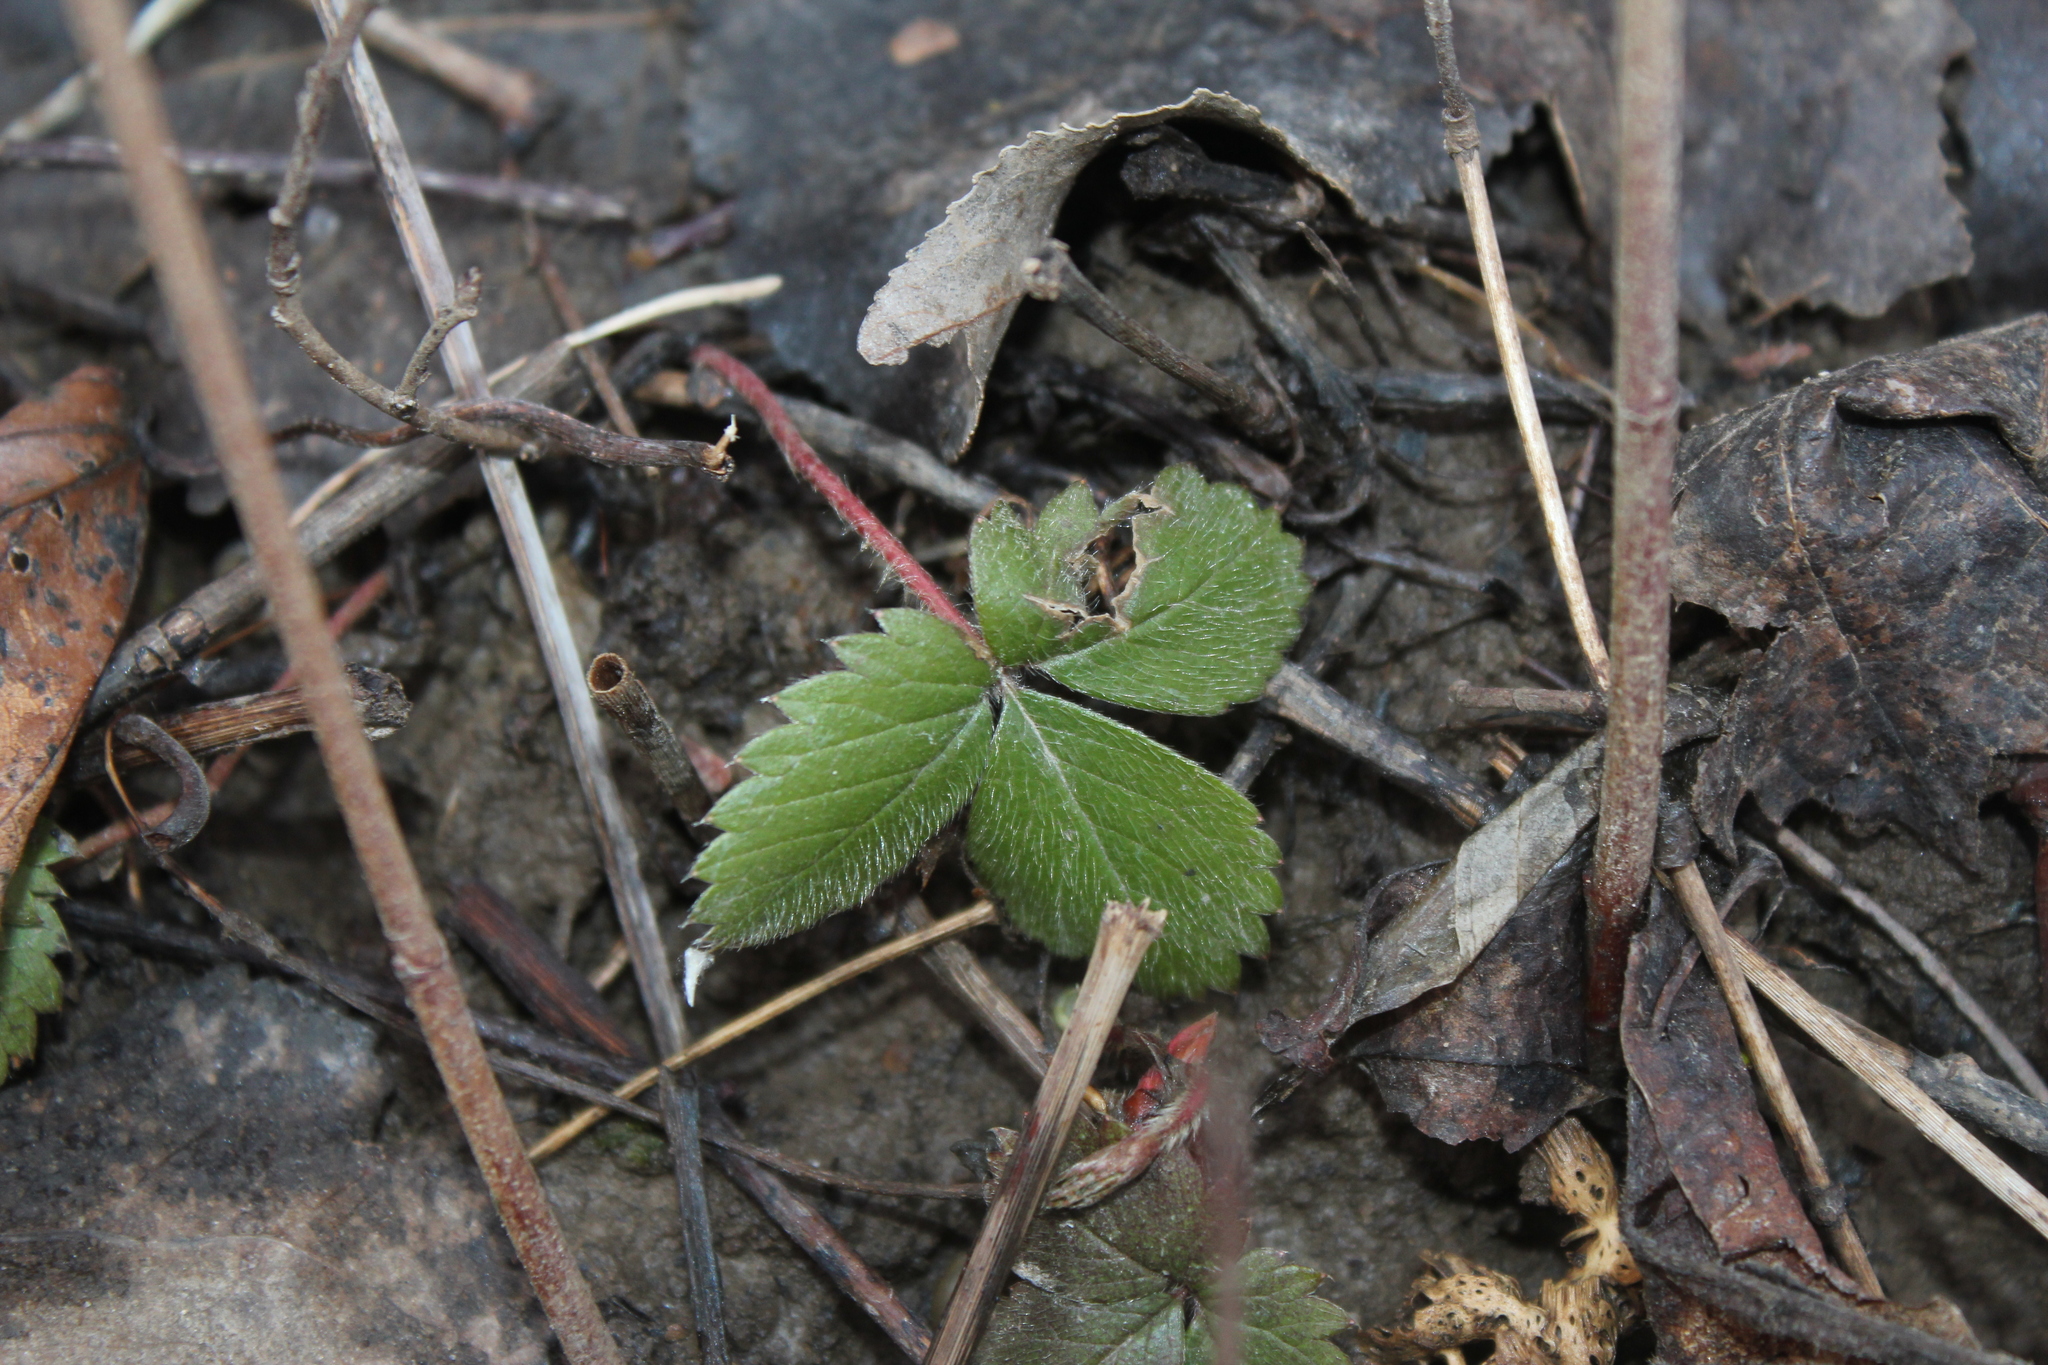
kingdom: Plantae
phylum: Tracheophyta
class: Magnoliopsida
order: Rosales
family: Rosaceae
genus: Fragaria
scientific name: Fragaria virginiana
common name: Thickleaved wild strawberry
